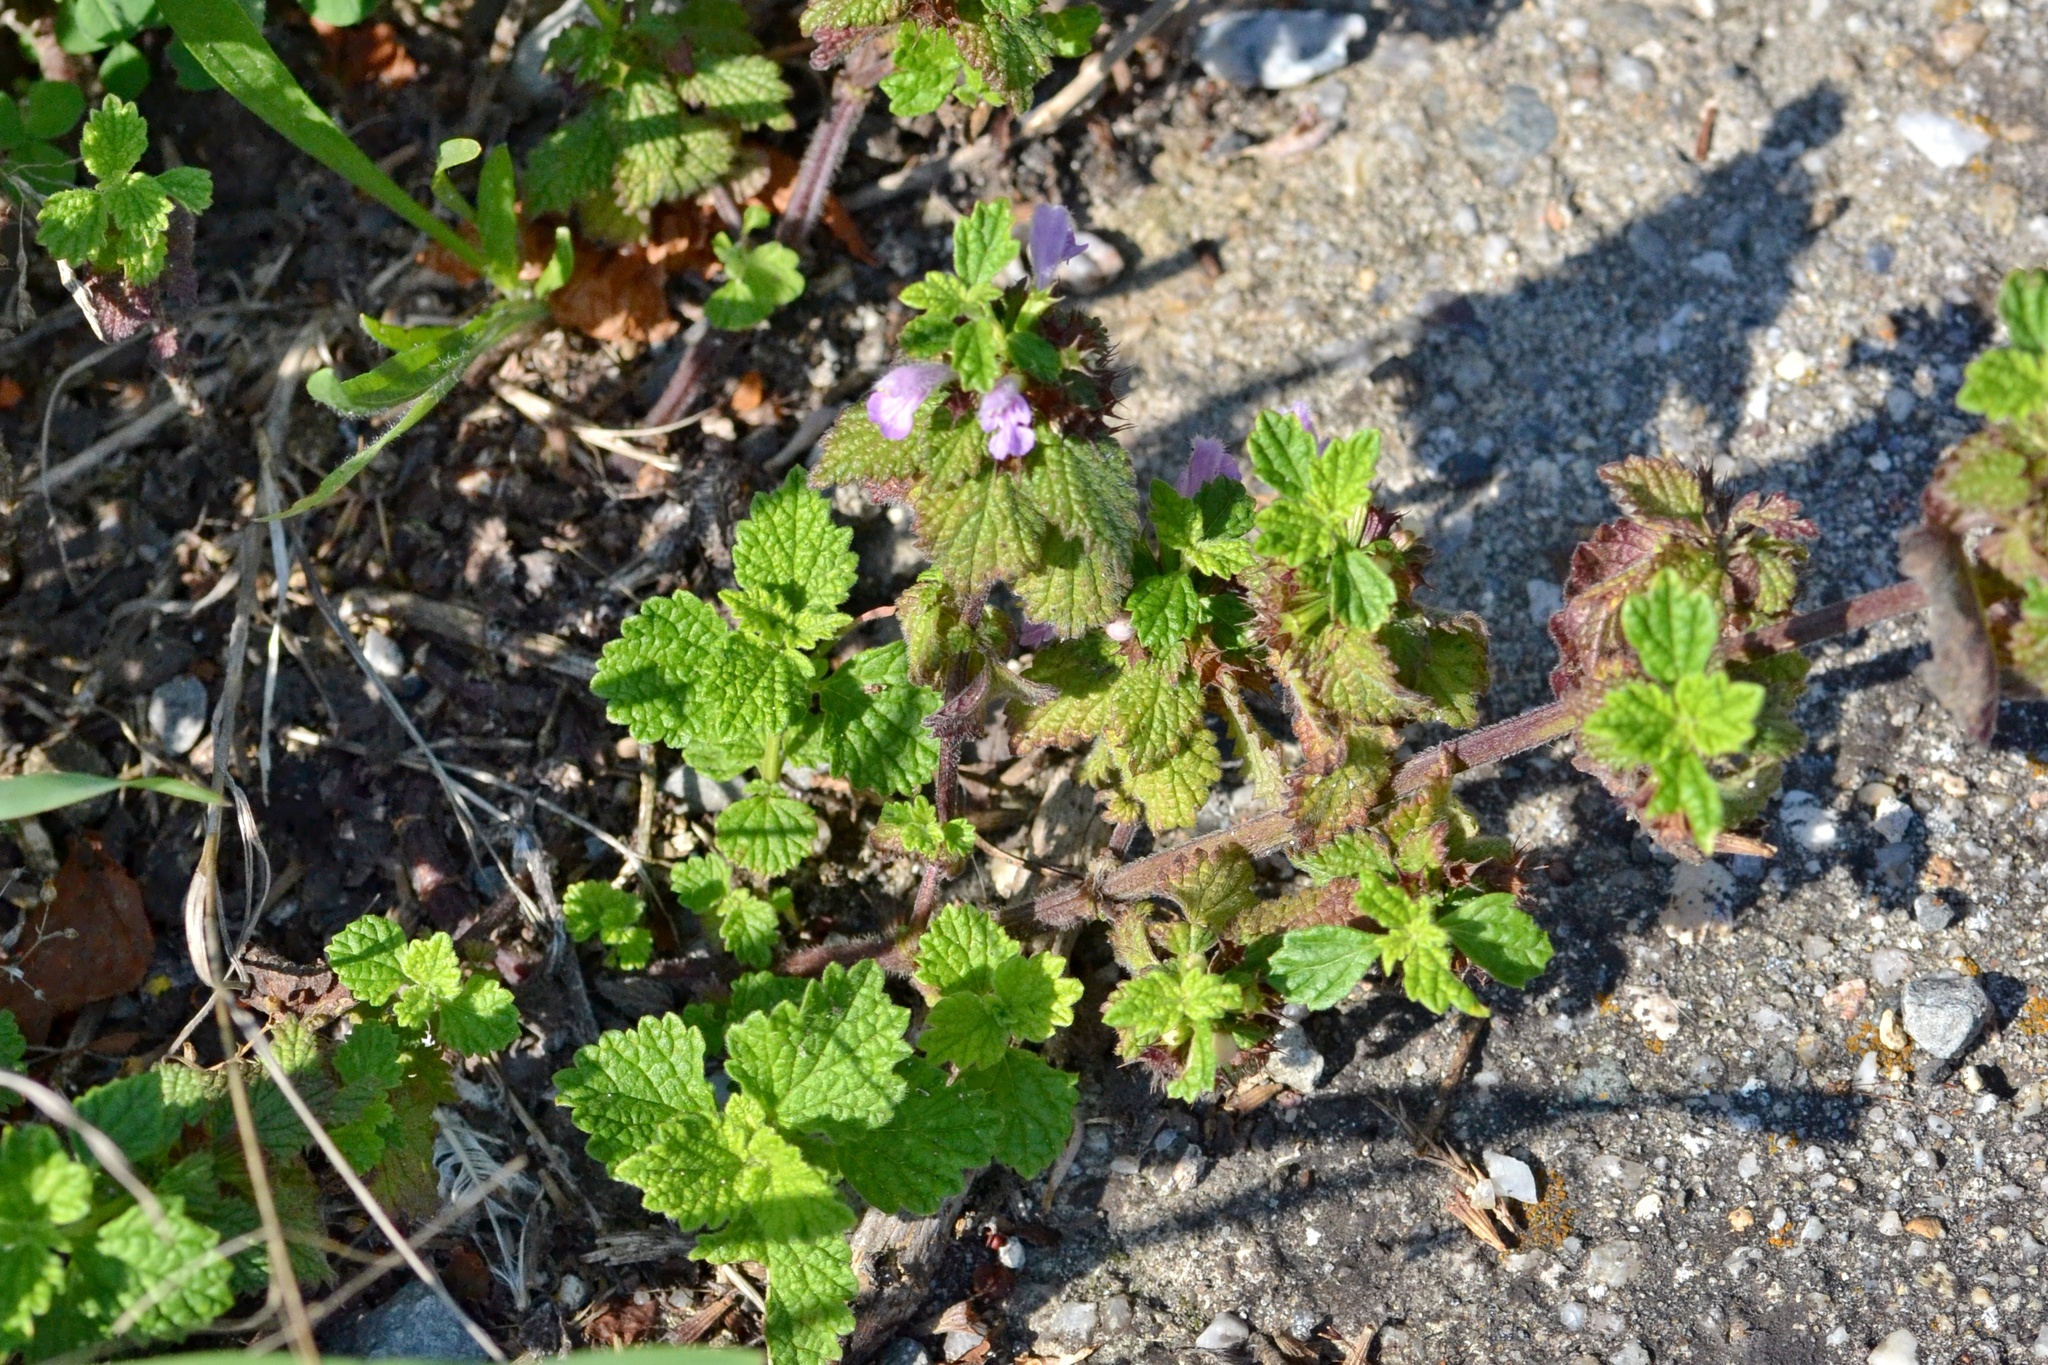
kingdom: Plantae
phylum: Tracheophyta
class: Magnoliopsida
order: Lamiales
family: Lamiaceae
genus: Ballota
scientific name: Ballota nigra
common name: Black horehound
